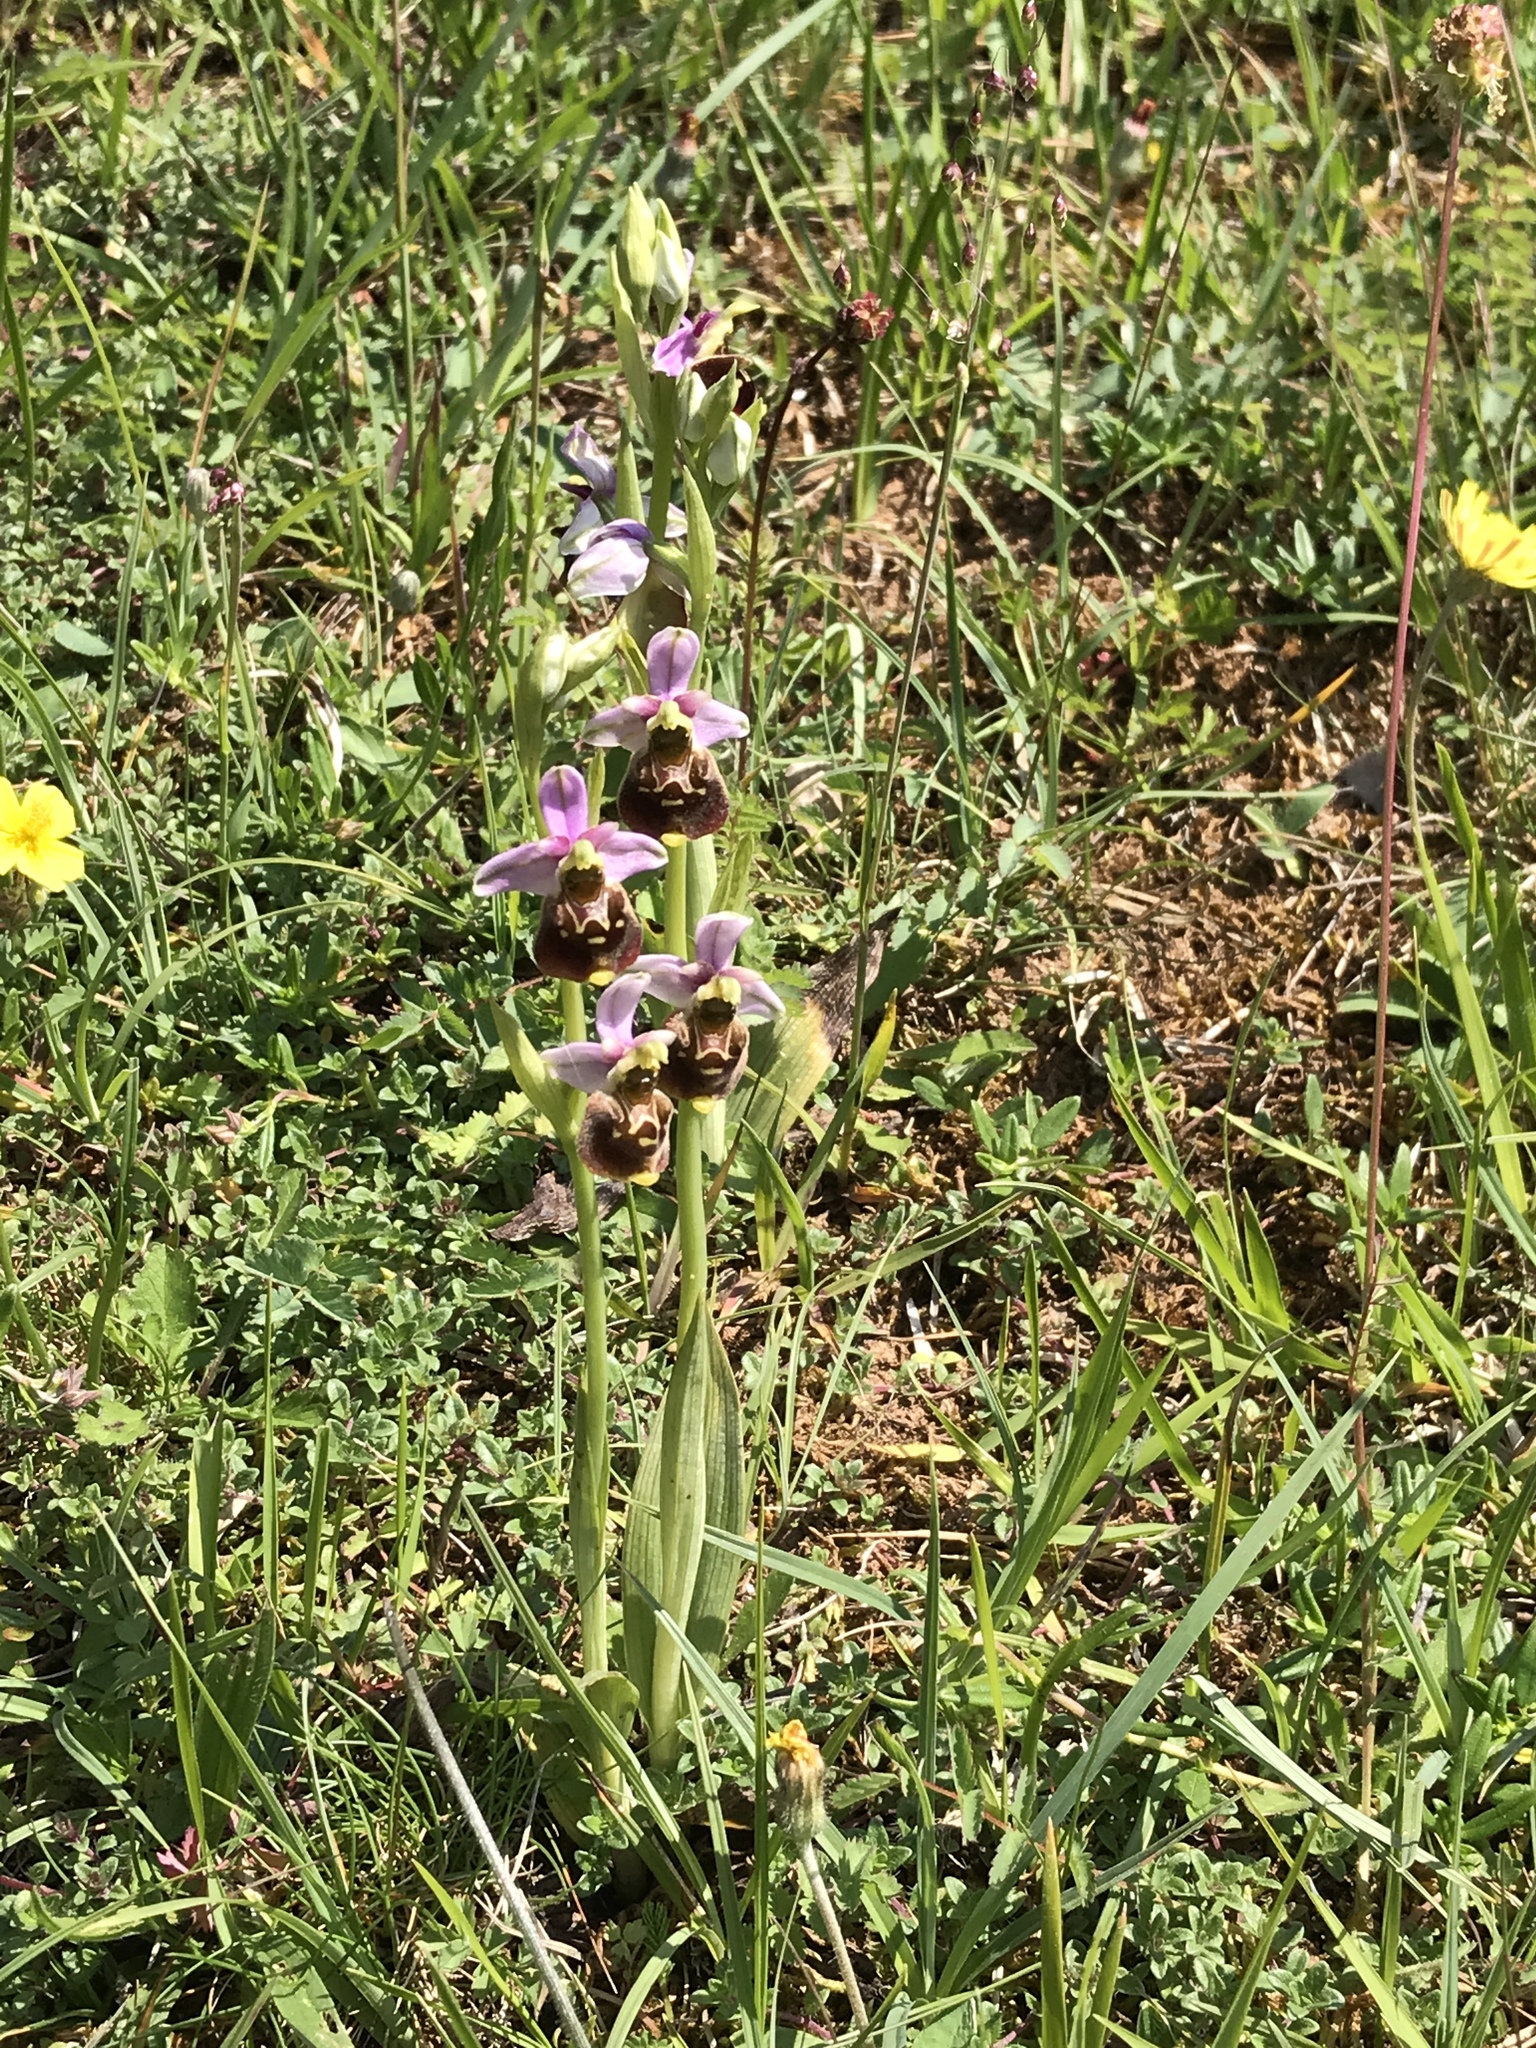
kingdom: Plantae
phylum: Tracheophyta
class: Liliopsida
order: Asparagales
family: Orchidaceae
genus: Ophrys
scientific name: Ophrys holosericea
